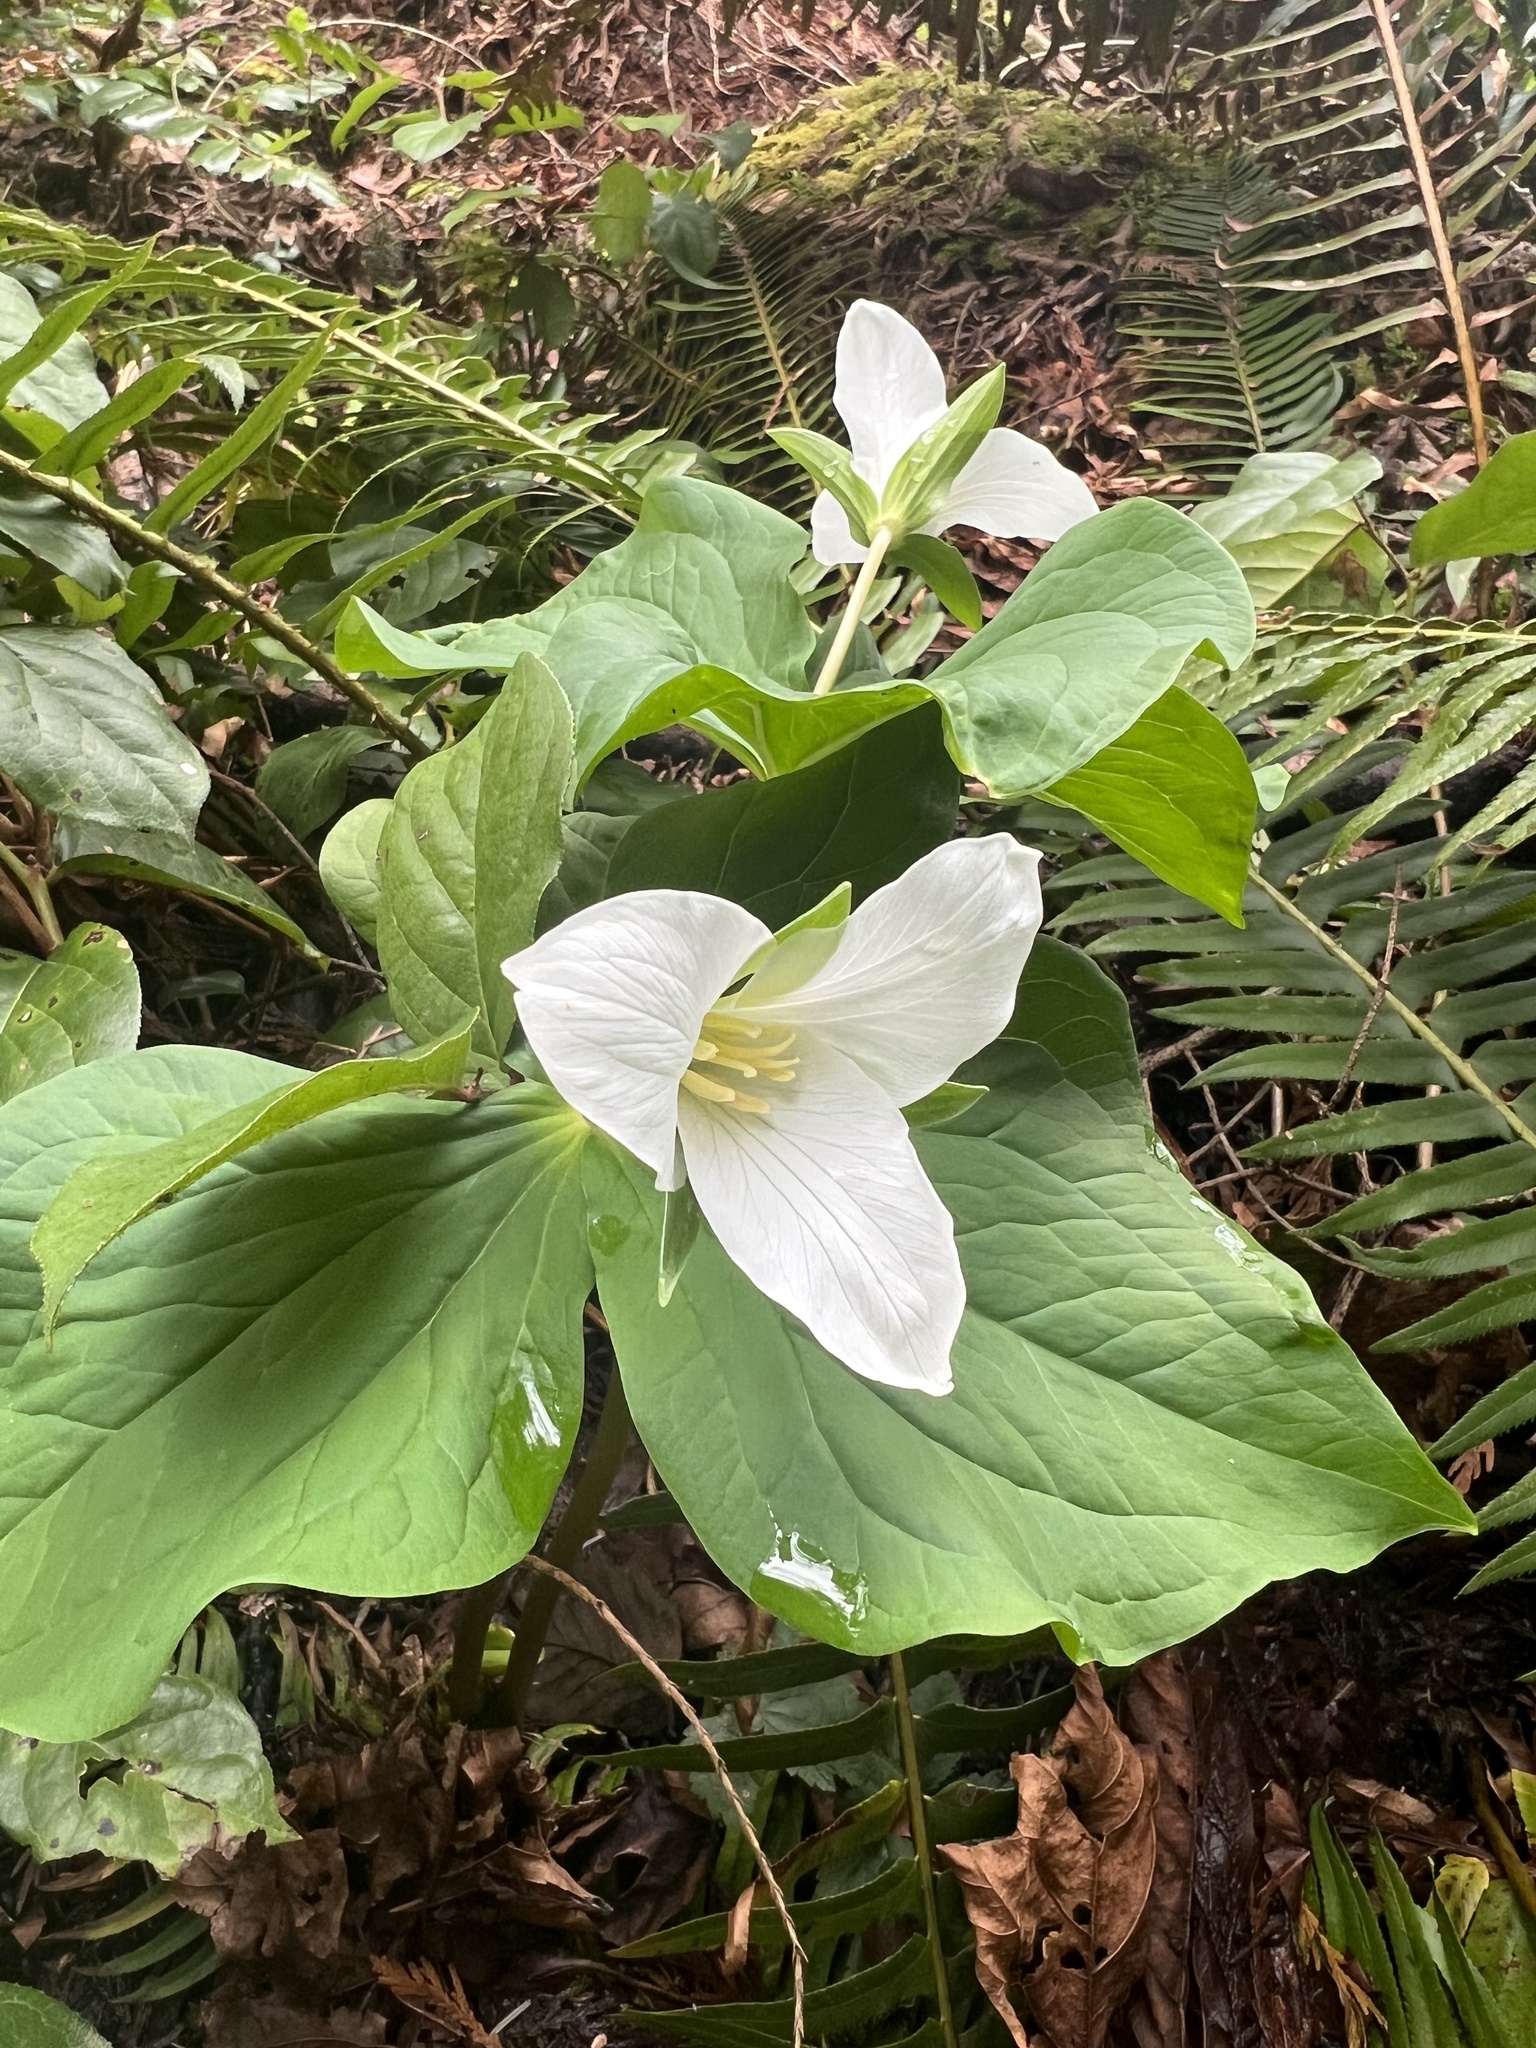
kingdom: Plantae
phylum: Tracheophyta
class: Liliopsida
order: Liliales
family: Melanthiaceae
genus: Trillium
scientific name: Trillium ovatum
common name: Pacific trillium
